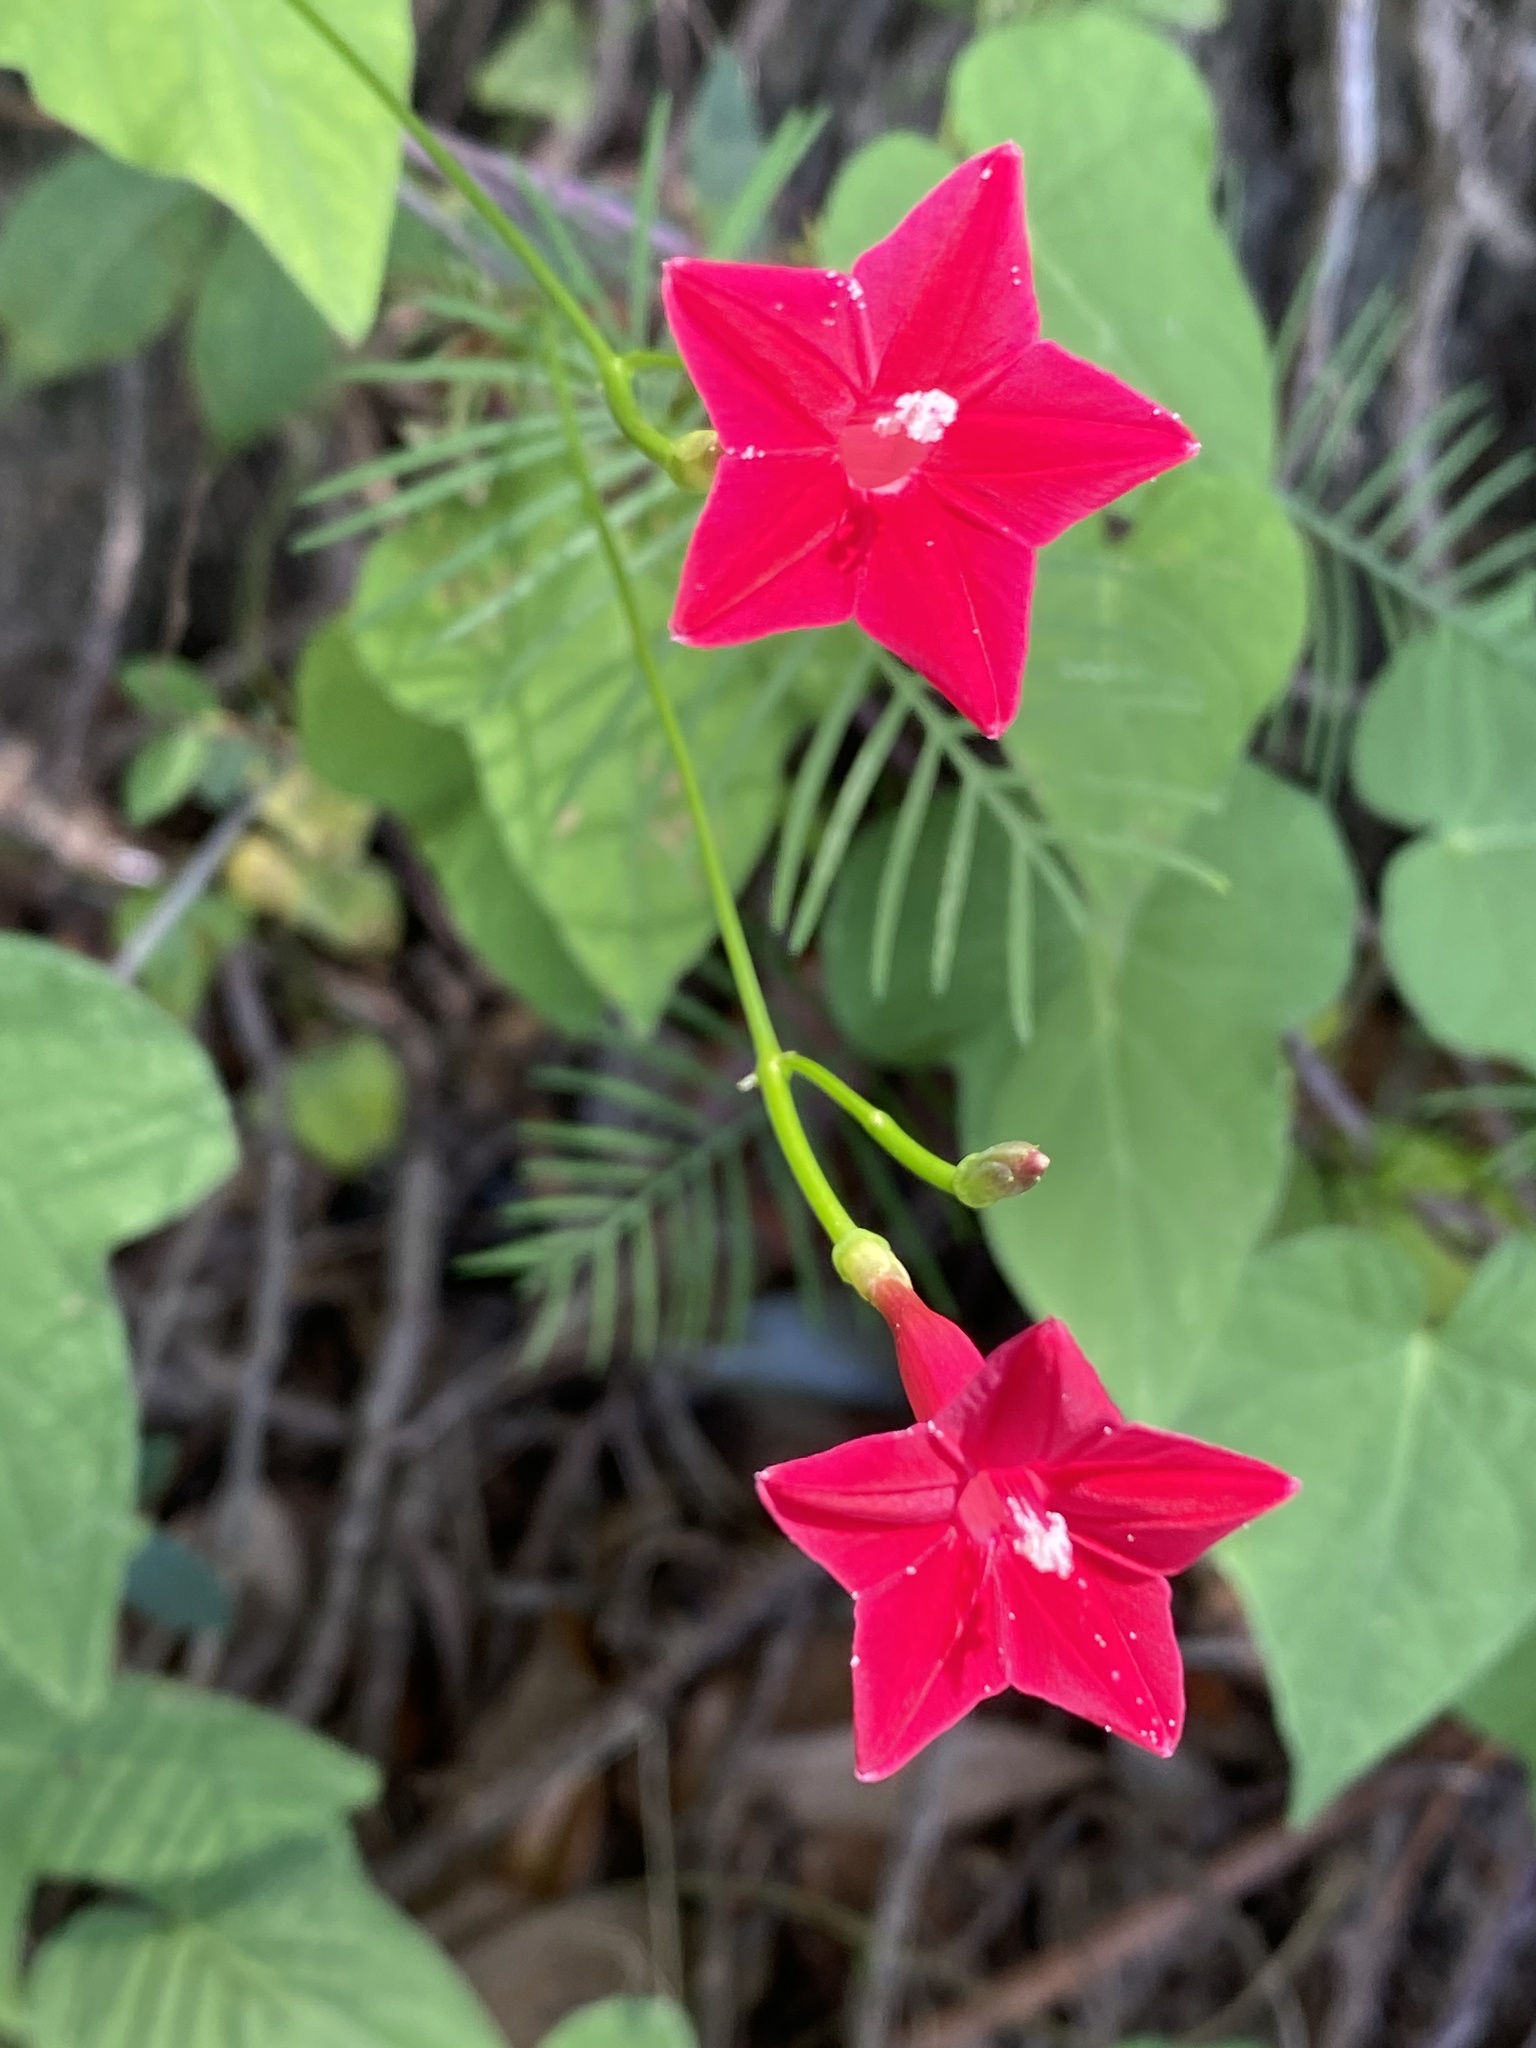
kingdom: Plantae
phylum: Tracheophyta
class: Magnoliopsida
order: Solanales
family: Convolvulaceae
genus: Ipomoea
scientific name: Ipomoea quamoclit
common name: Cypress vine
